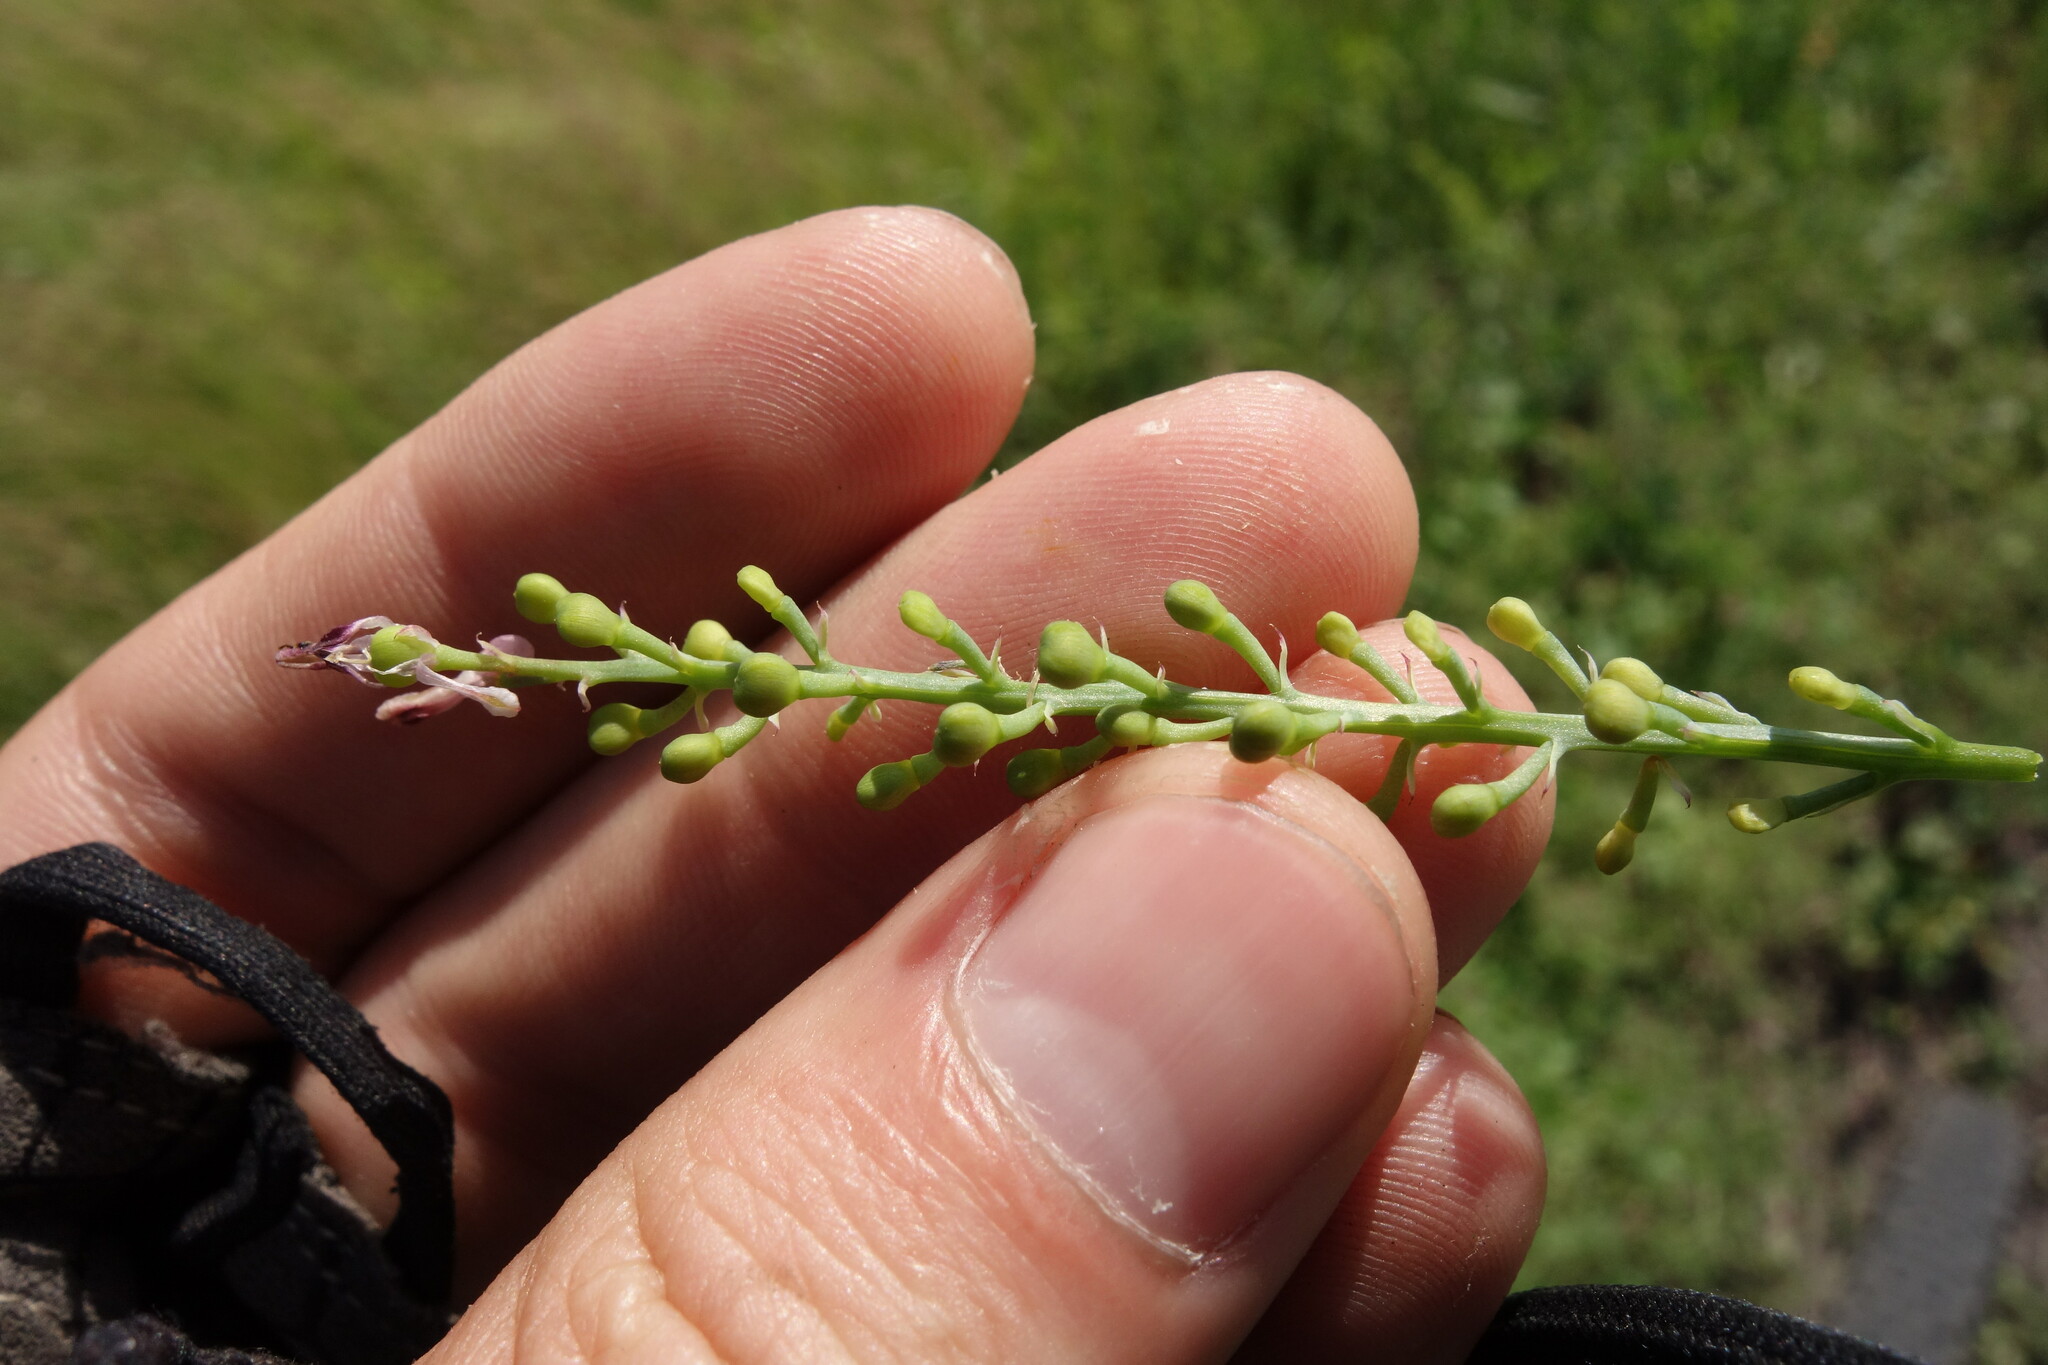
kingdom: Plantae
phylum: Tracheophyta
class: Magnoliopsida
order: Ranunculales
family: Papaveraceae
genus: Fumaria
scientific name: Fumaria officinalis
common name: Common fumitory
